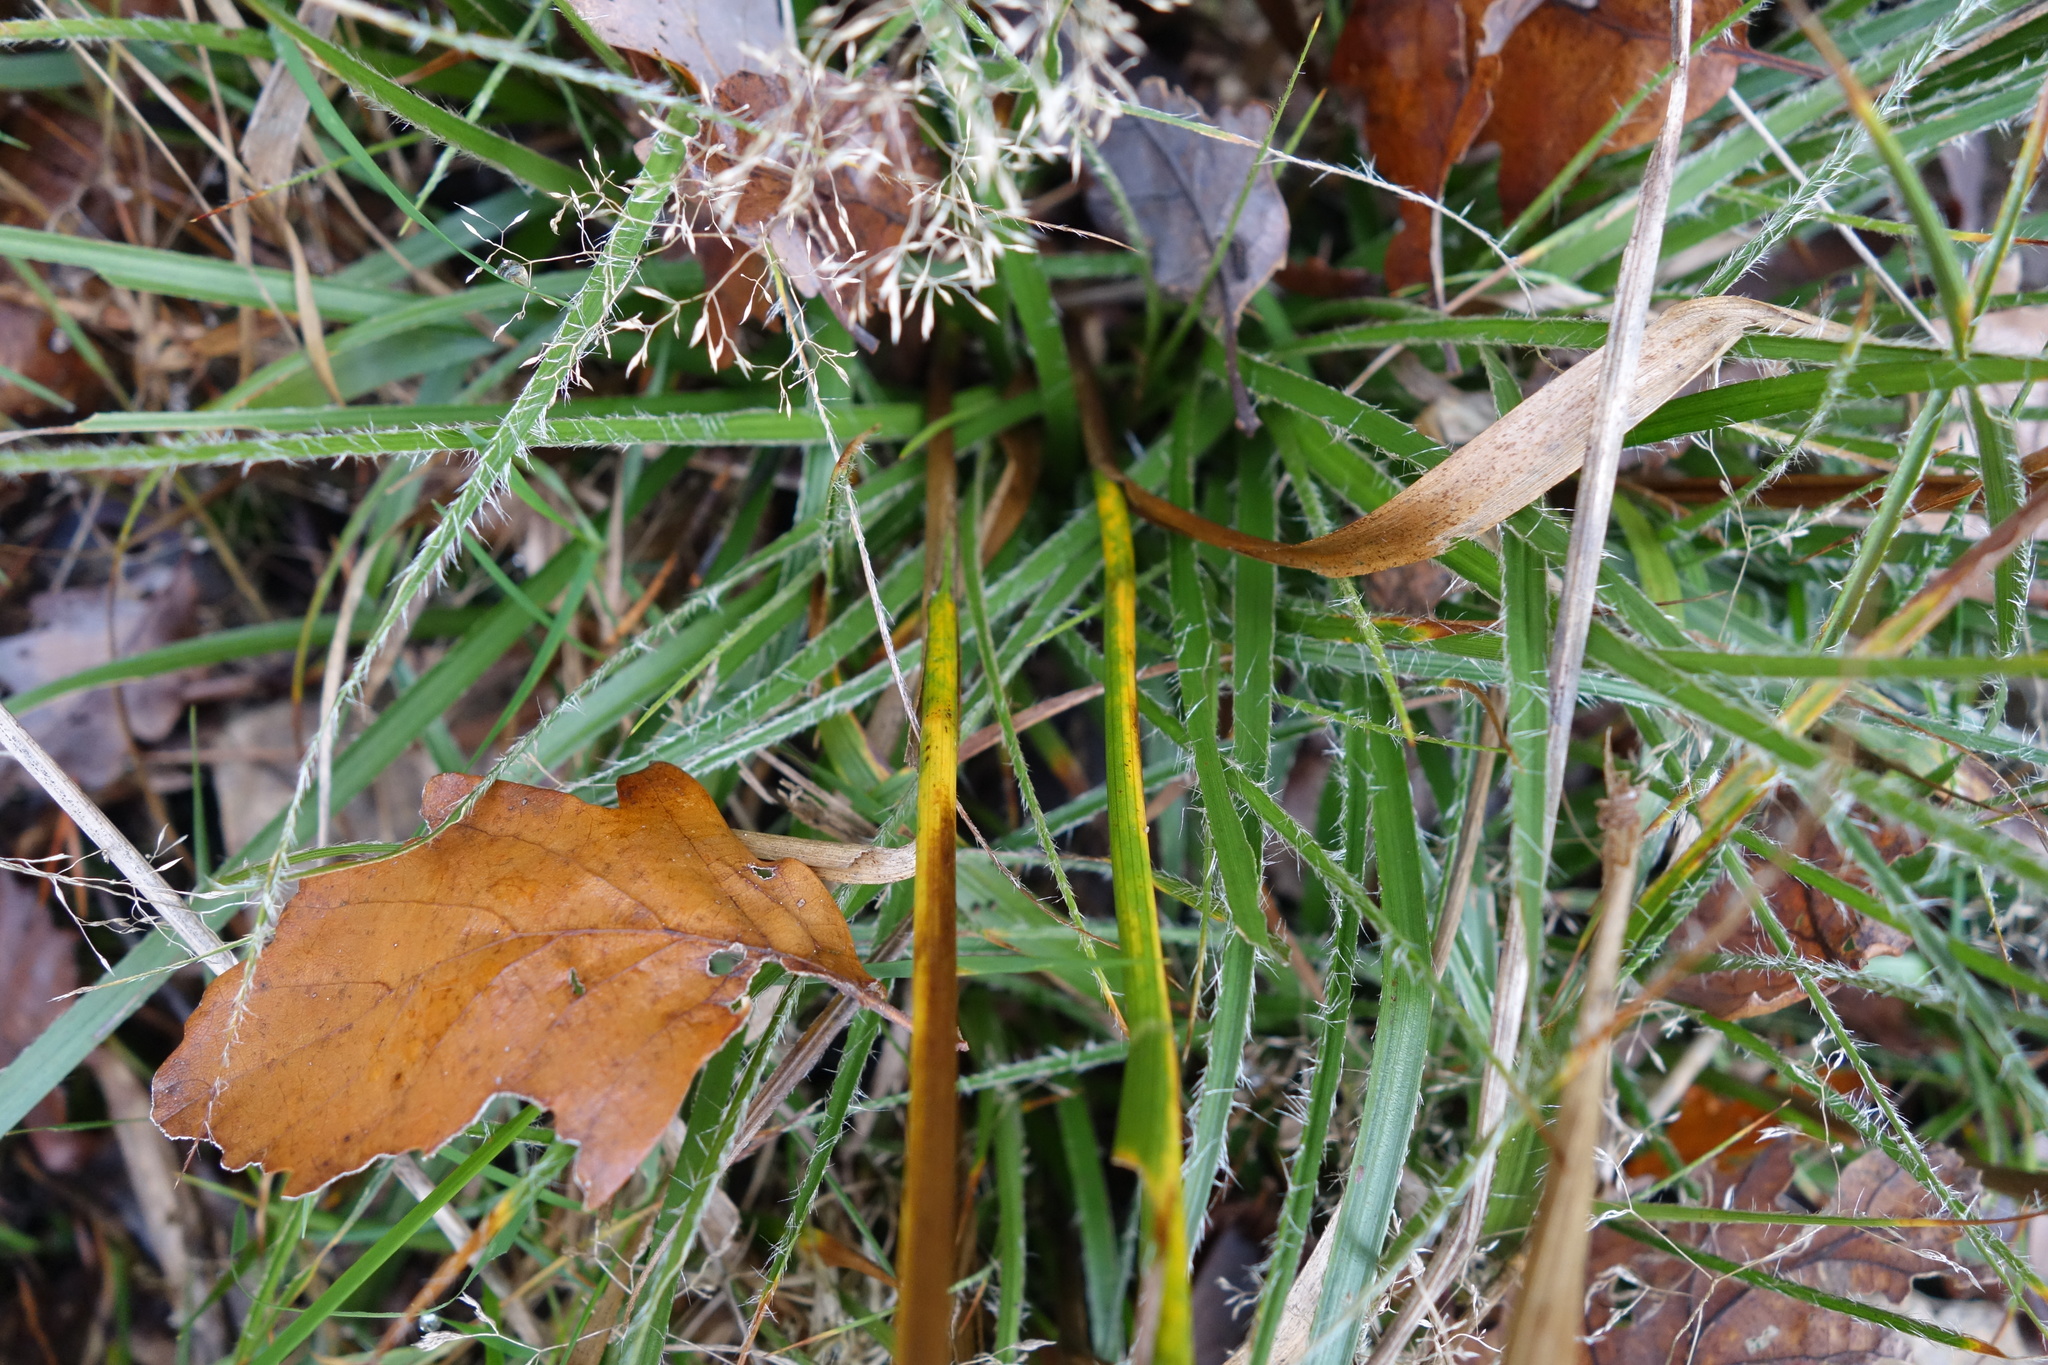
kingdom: Plantae
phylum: Tracheophyta
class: Liliopsida
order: Poales
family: Juncaceae
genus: Luzula
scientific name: Luzula luzuloides
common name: White wood-rush
